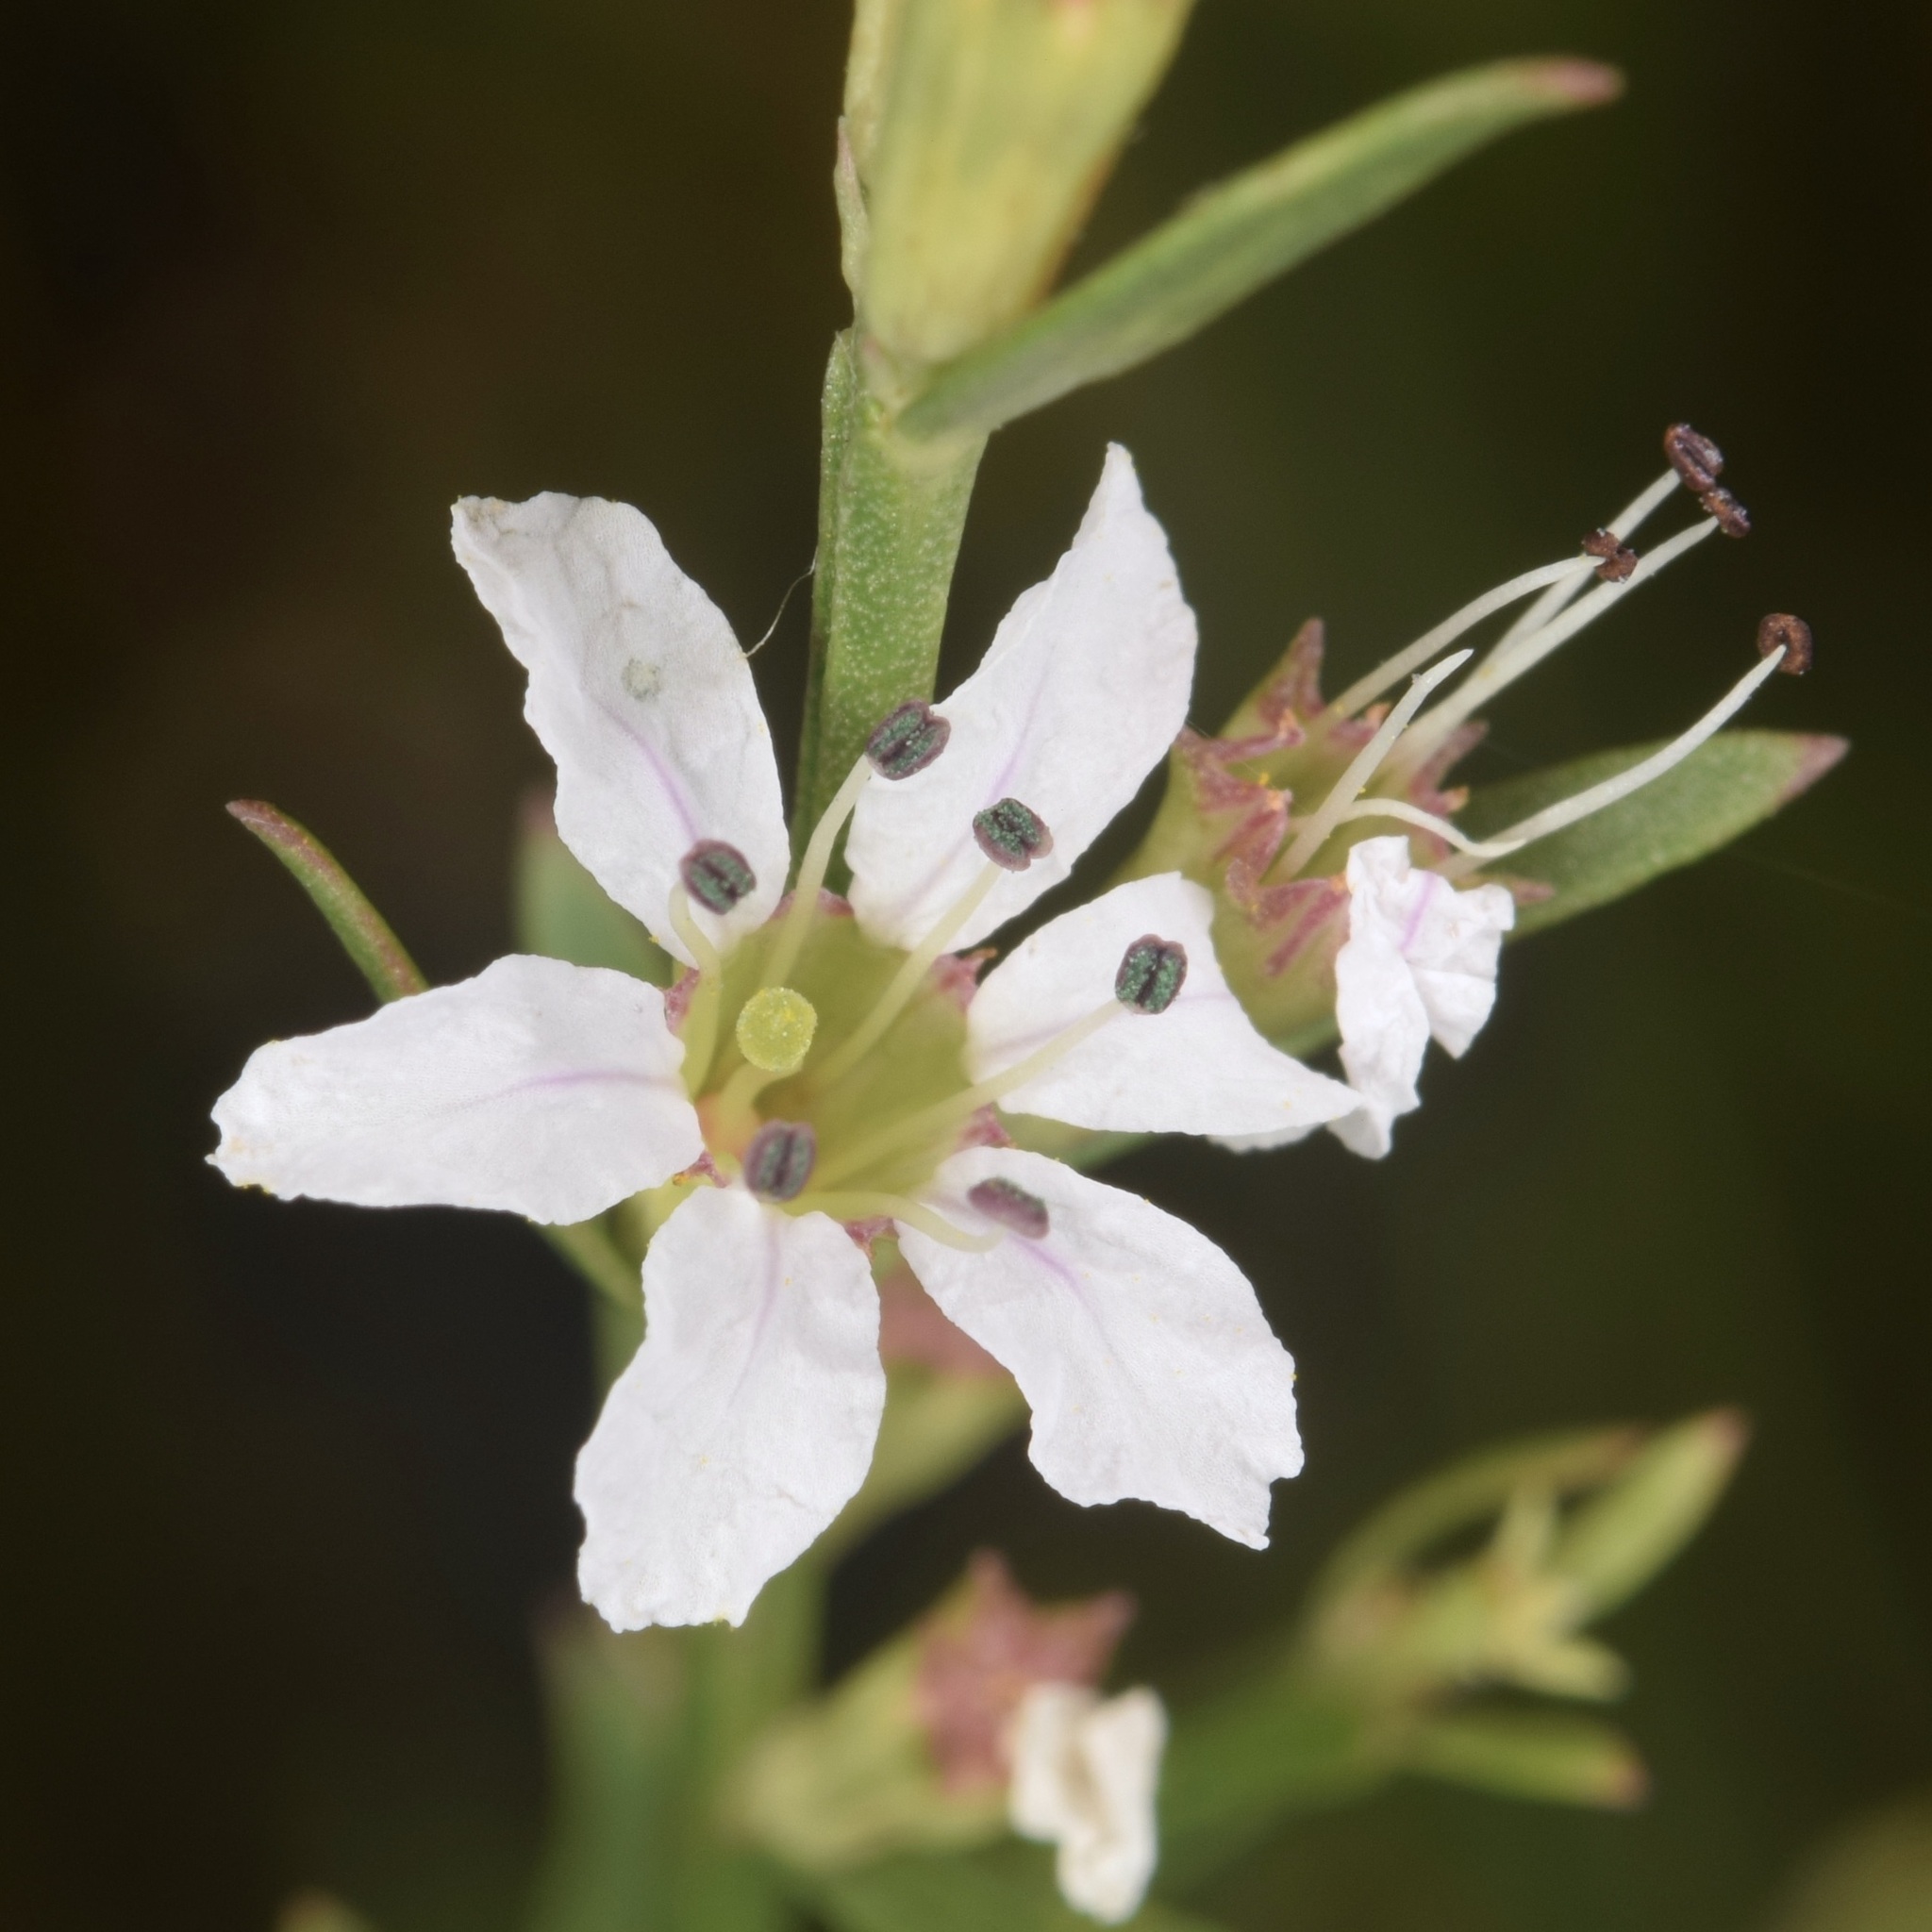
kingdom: Plantae
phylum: Tracheophyta
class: Magnoliopsida
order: Myrtales
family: Lythraceae
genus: Lythrum
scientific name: Lythrum lineare
